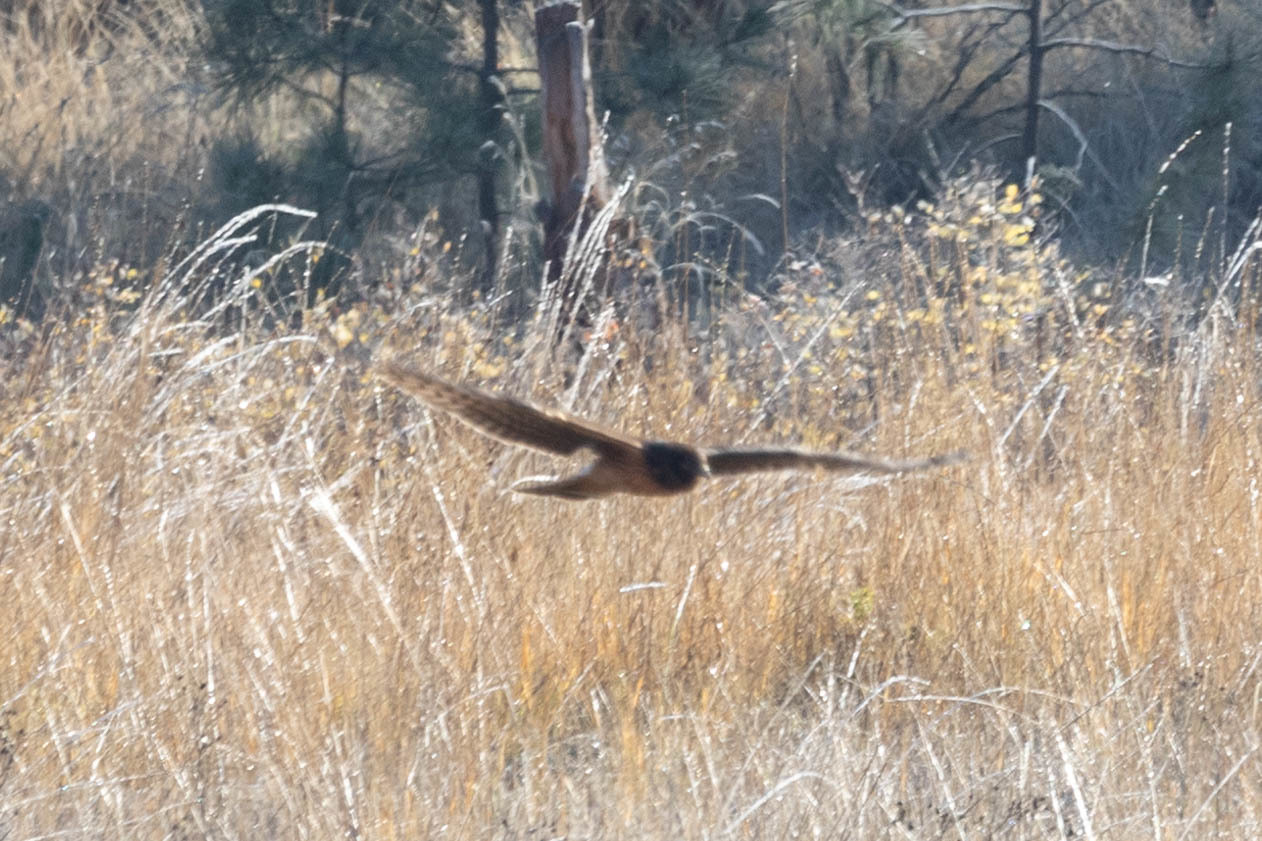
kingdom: Animalia
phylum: Chordata
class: Aves
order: Accipitriformes
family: Accipitridae
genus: Circus
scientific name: Circus cyaneus
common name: Hen harrier
